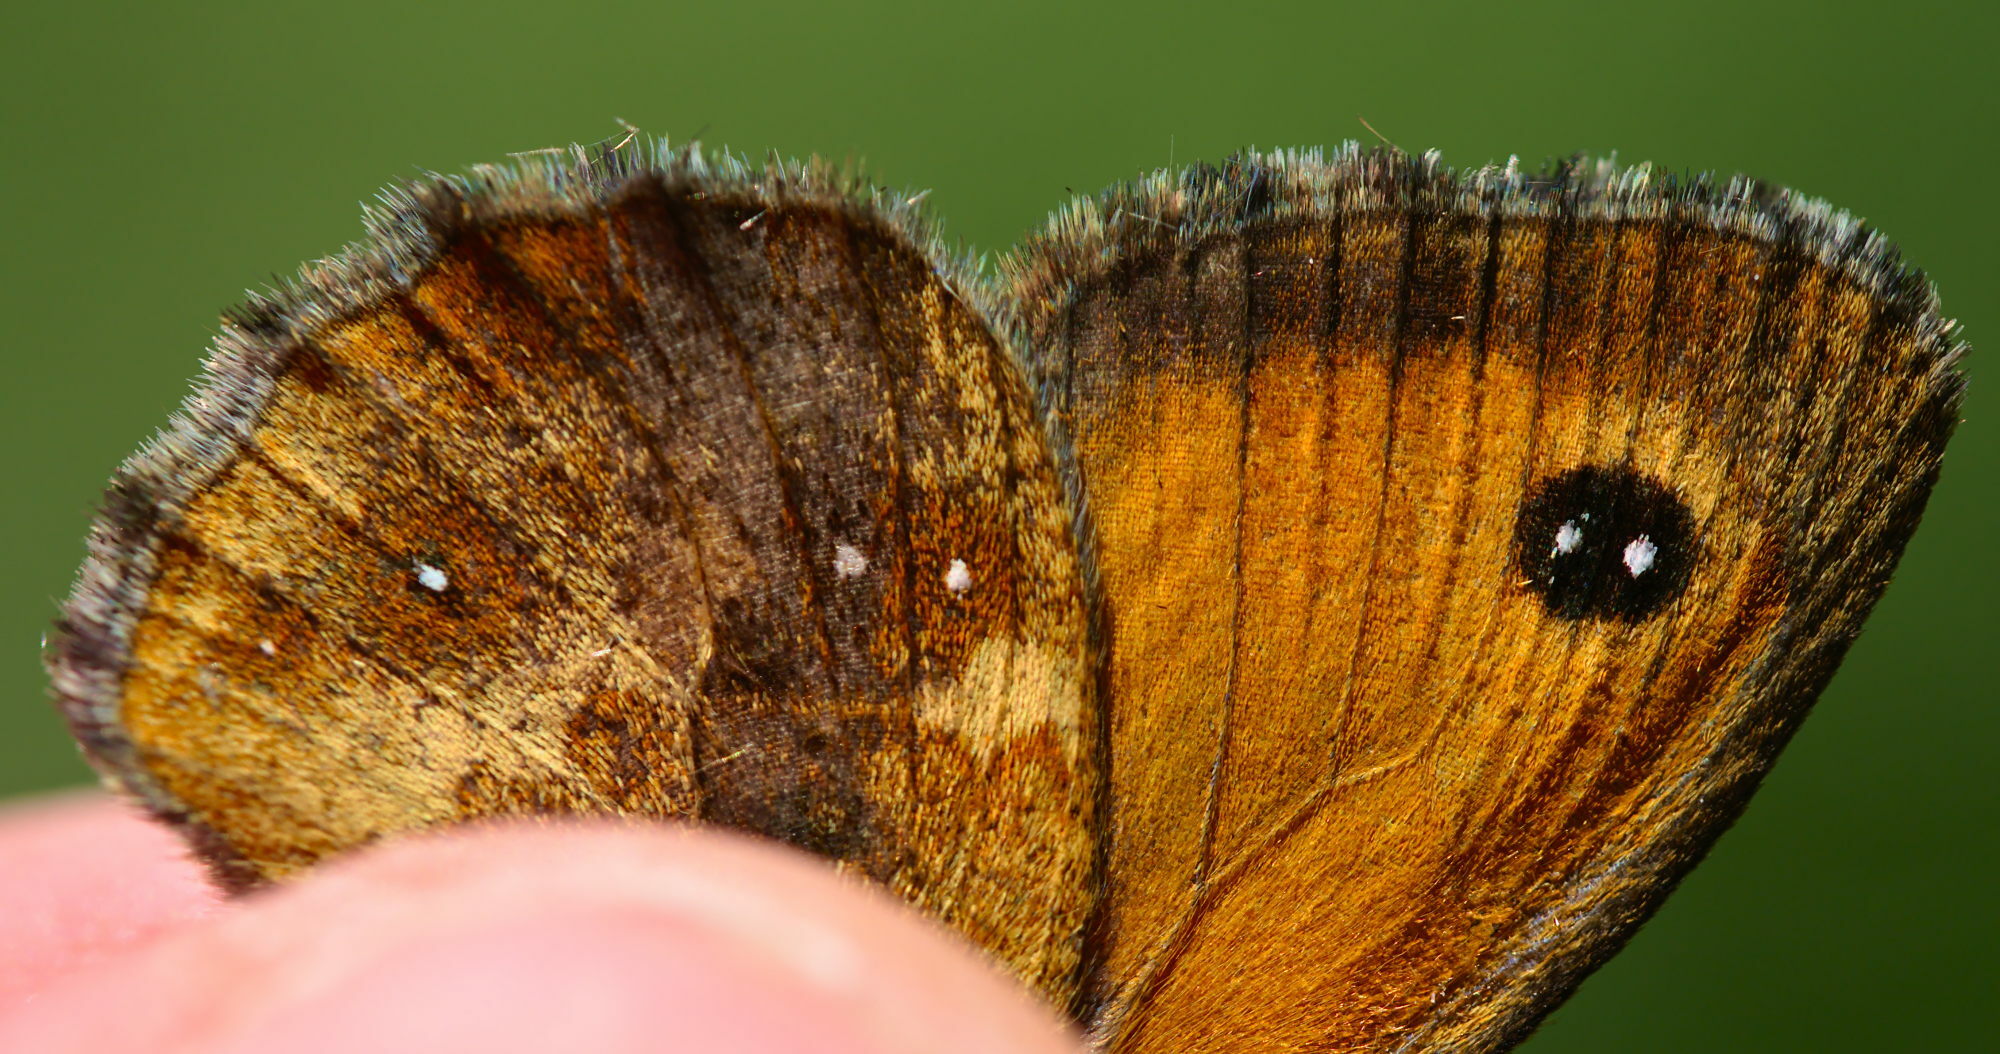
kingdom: Animalia
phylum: Arthropoda
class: Insecta
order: Lepidoptera
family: Nymphalidae
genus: Pyronia
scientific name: Pyronia tithonus
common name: Gatekeeper
